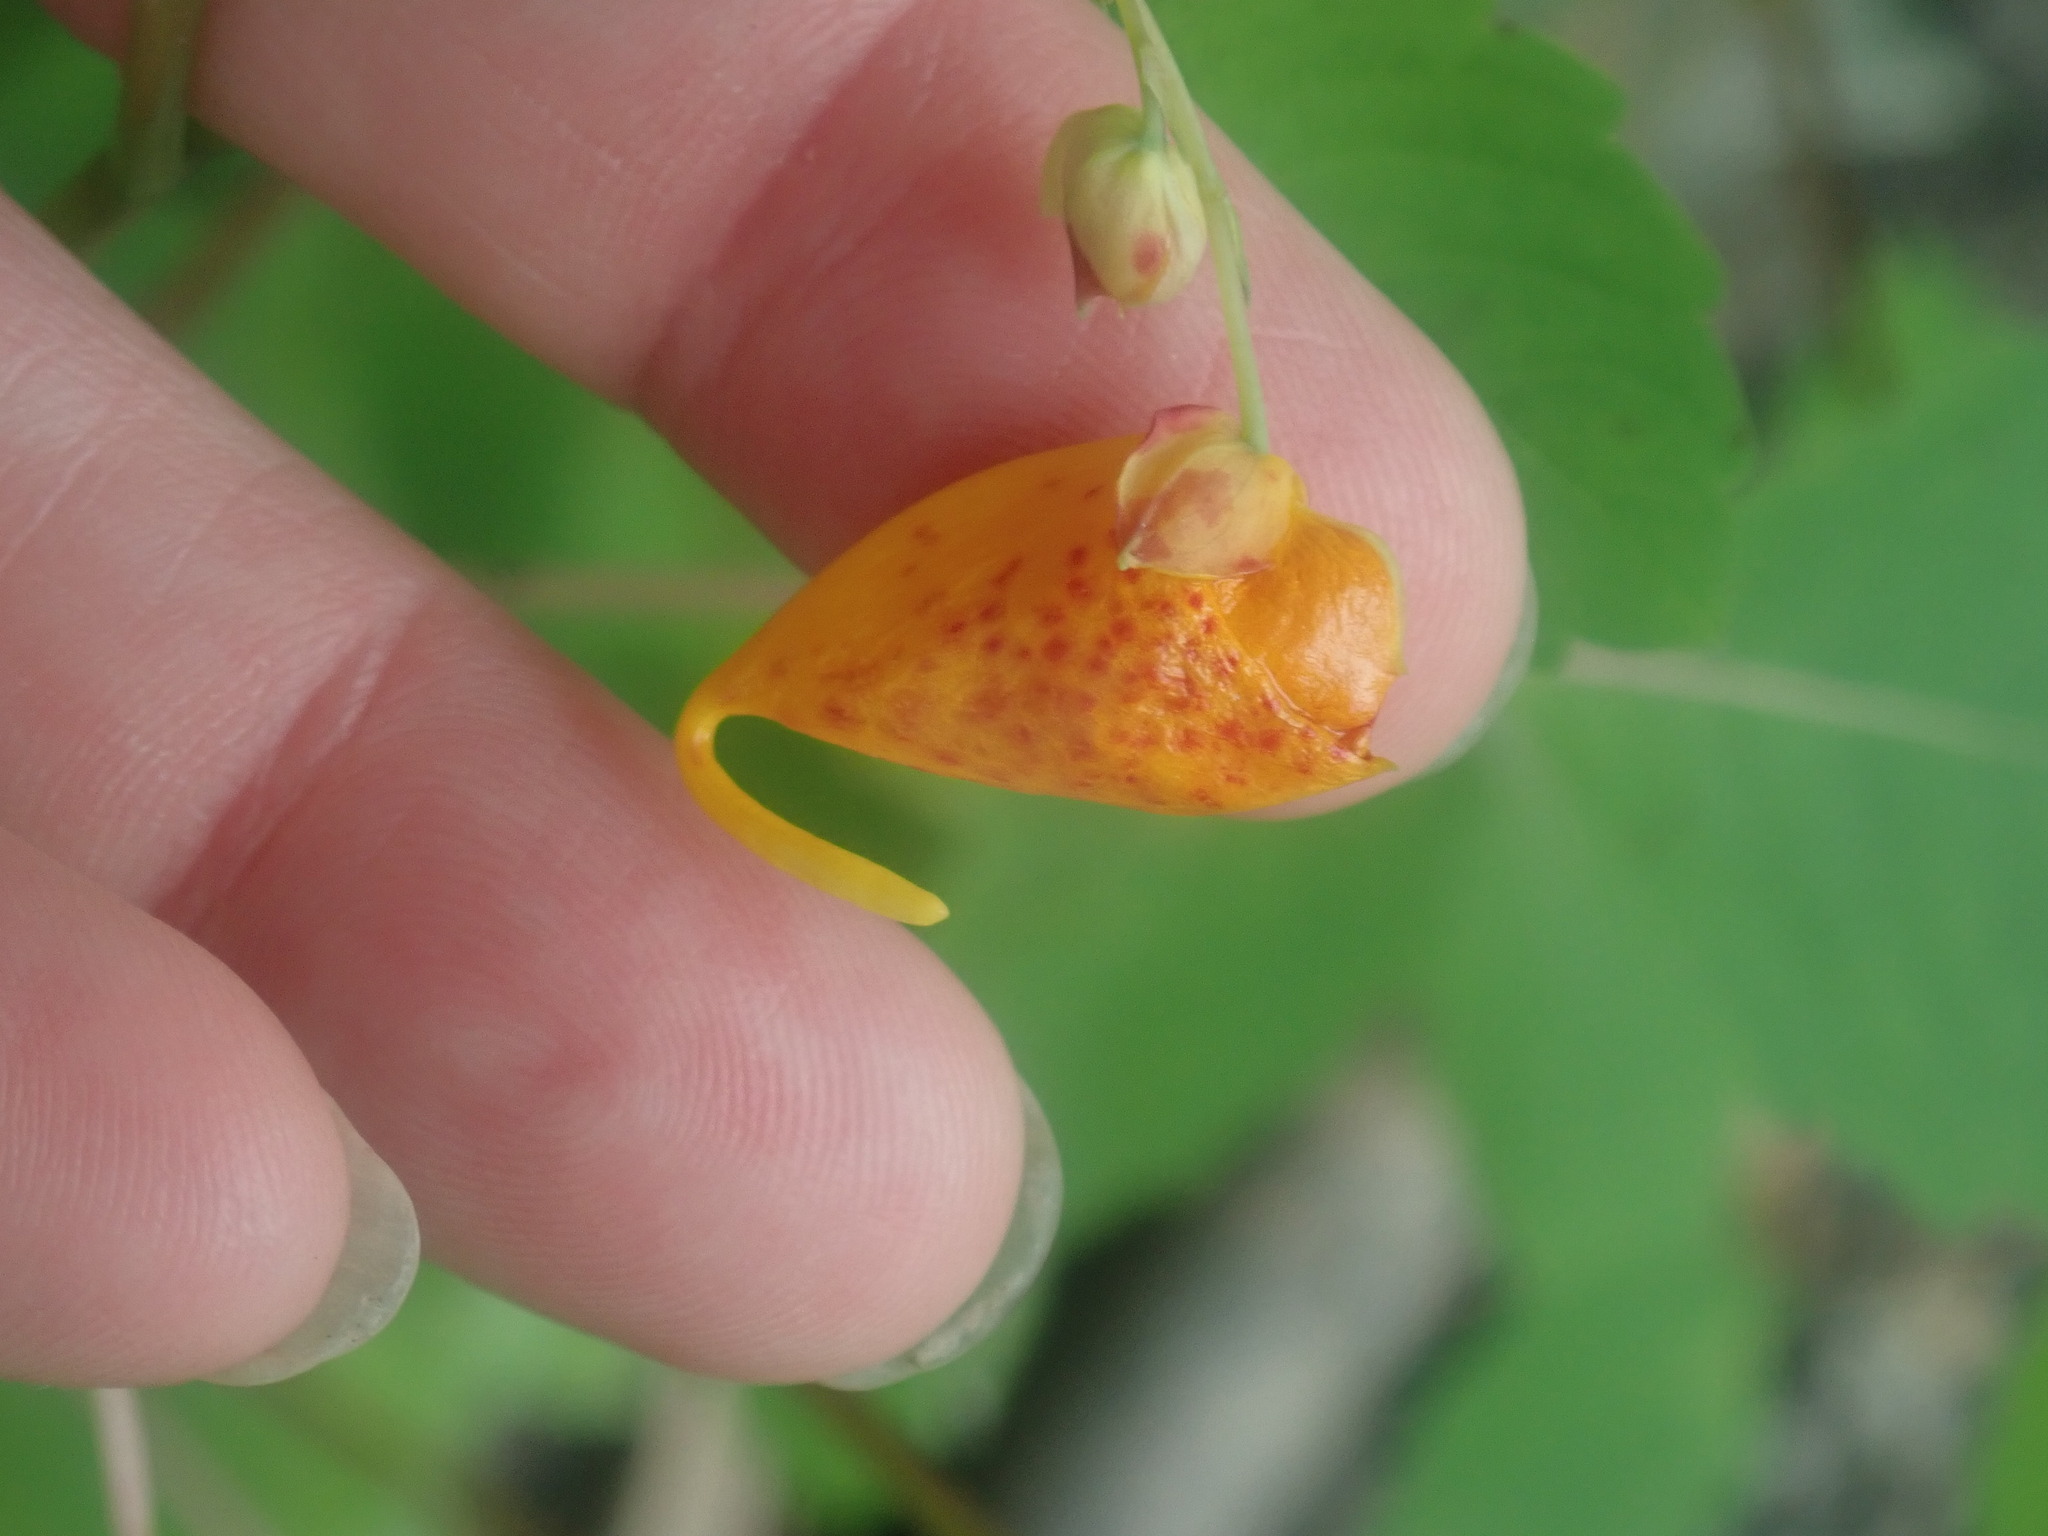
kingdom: Plantae
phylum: Tracheophyta
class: Magnoliopsida
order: Ericales
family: Balsaminaceae
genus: Impatiens
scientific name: Impatiens capensis
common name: Orange balsam
